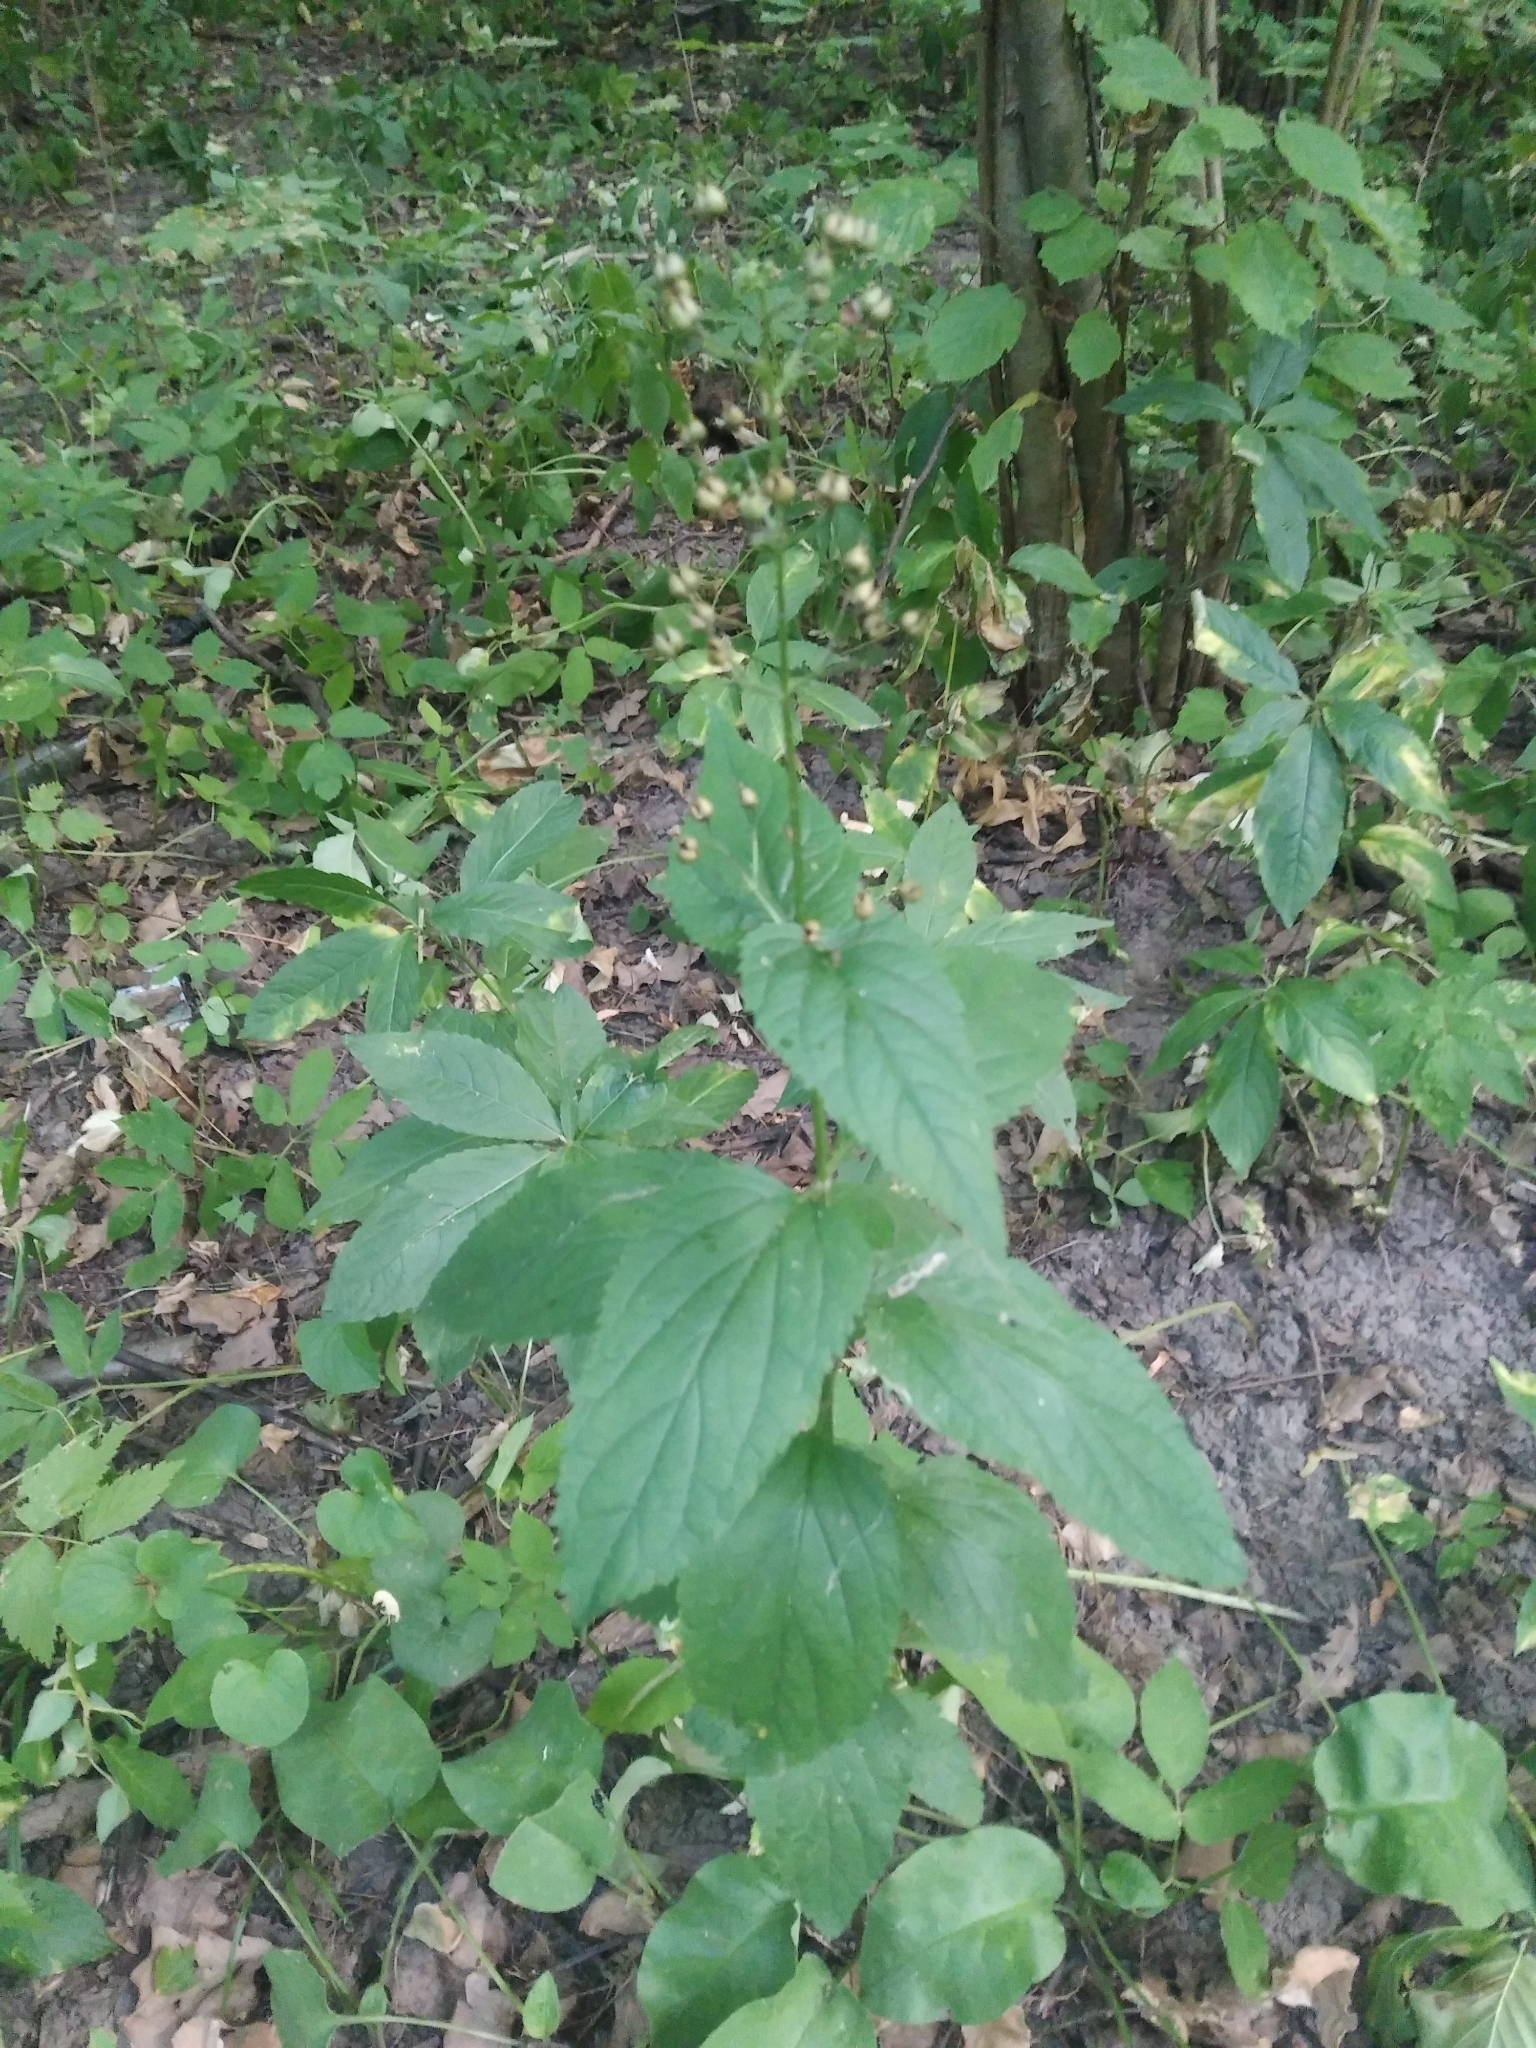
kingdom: Plantae
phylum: Tracheophyta
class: Magnoliopsida
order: Lamiales
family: Scrophulariaceae
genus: Scrophularia
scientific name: Scrophularia nodosa
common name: Common figwort
